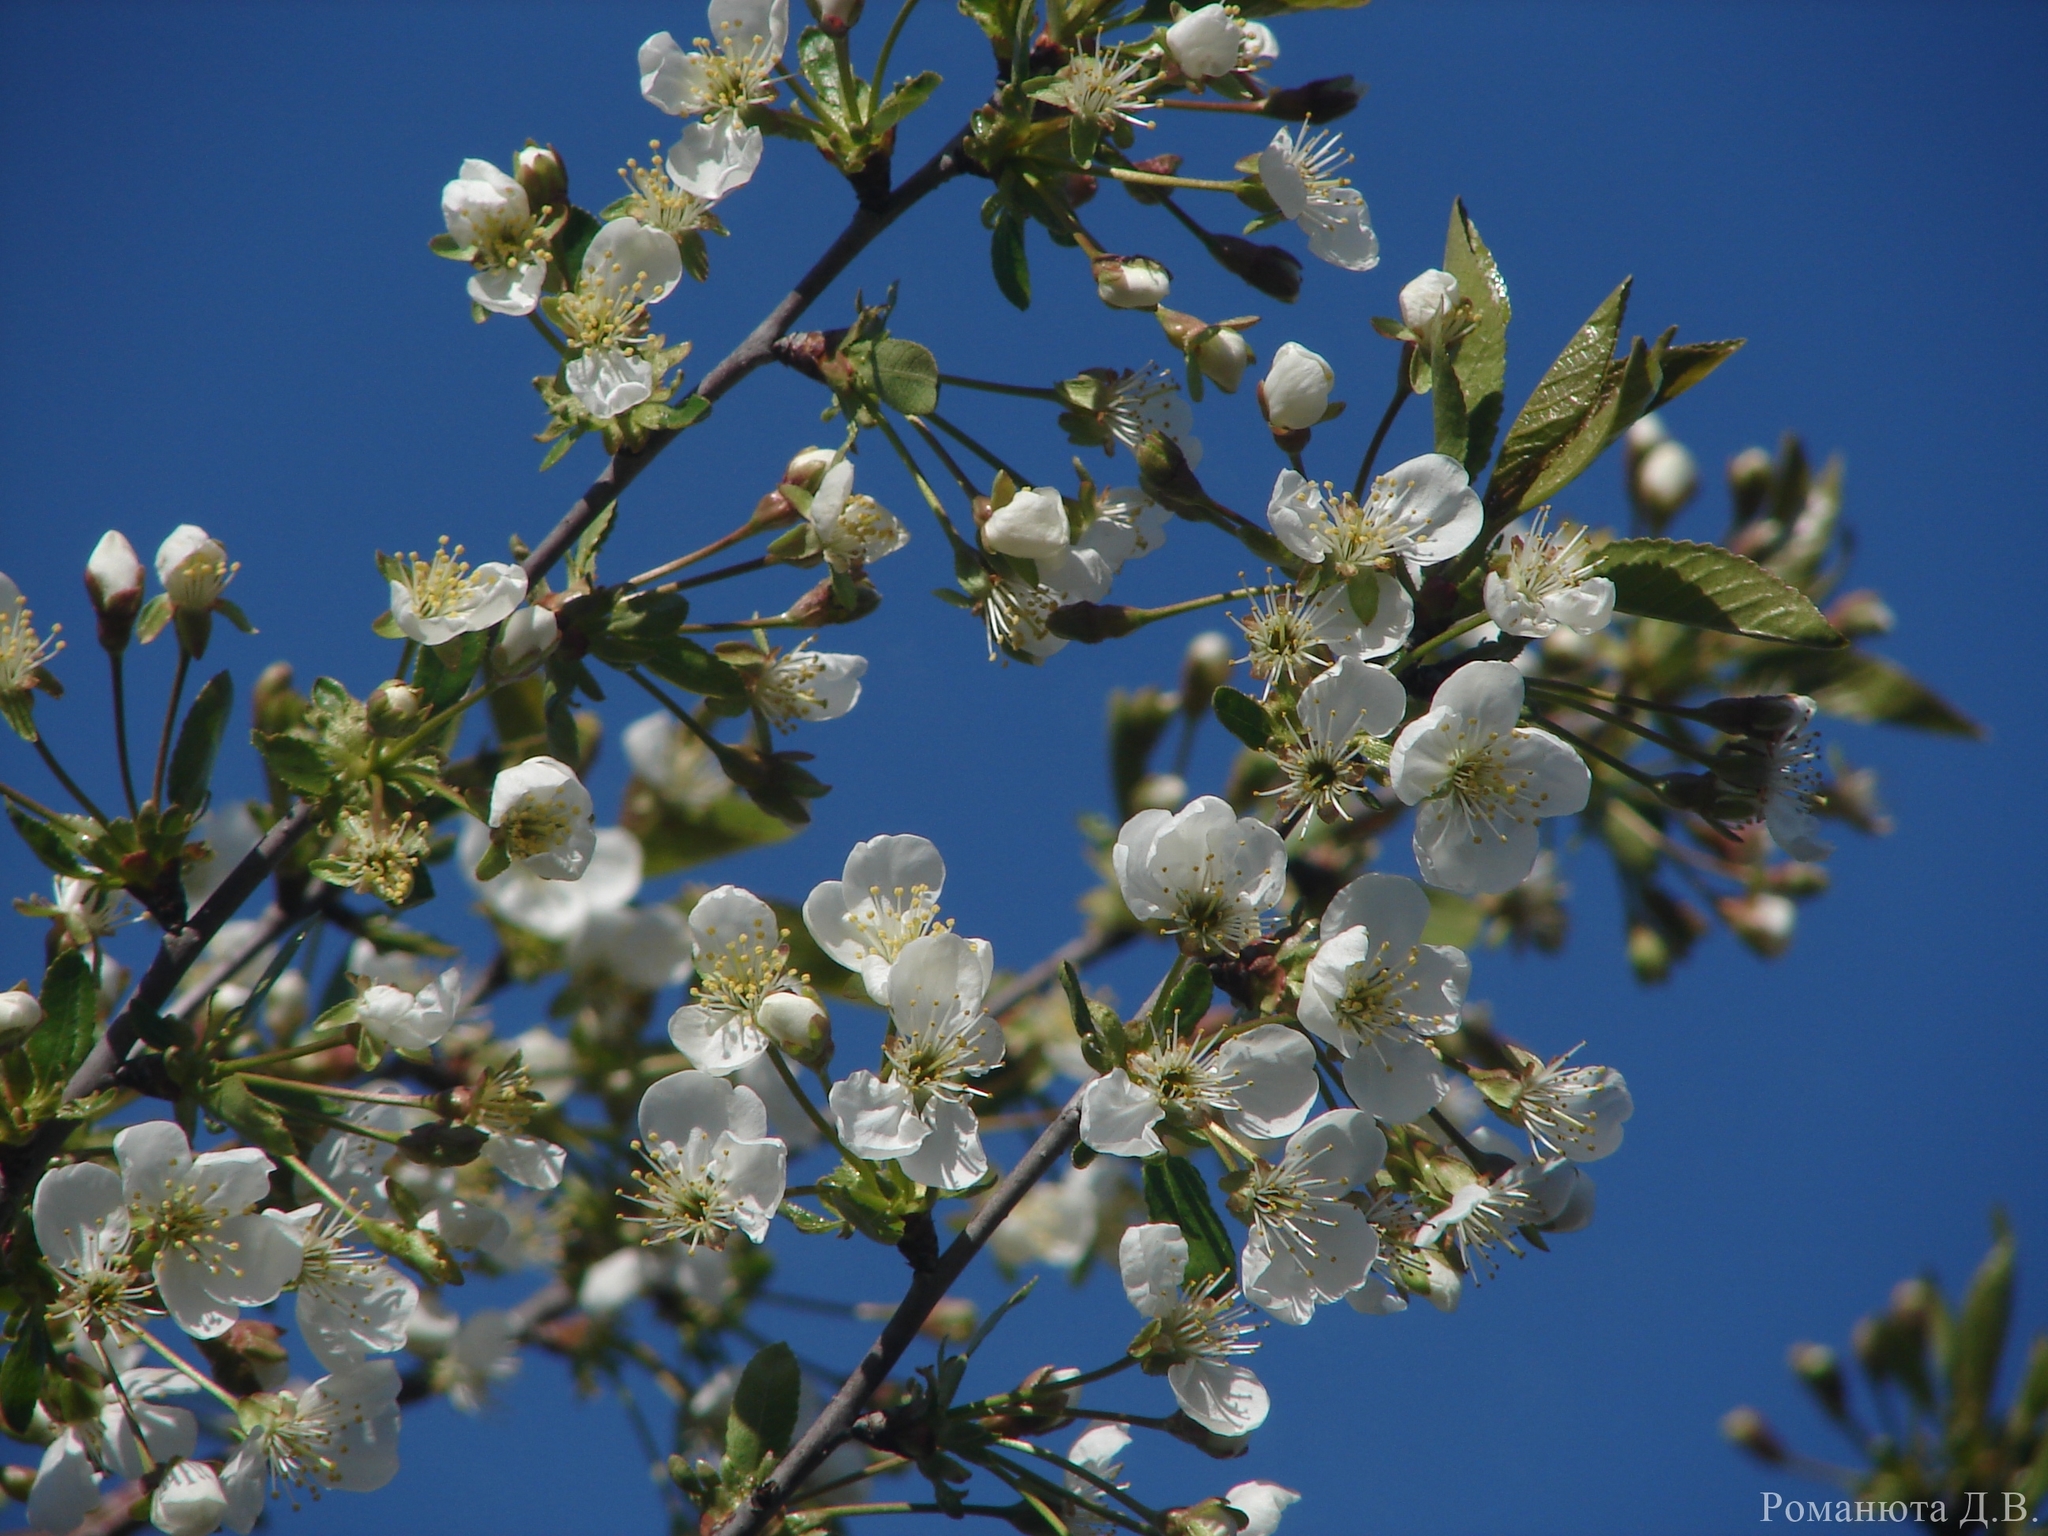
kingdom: Plantae
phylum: Tracheophyta
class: Magnoliopsida
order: Rosales
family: Rosaceae
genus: Prunus
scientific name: Prunus cerasus
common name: Morello cherry
